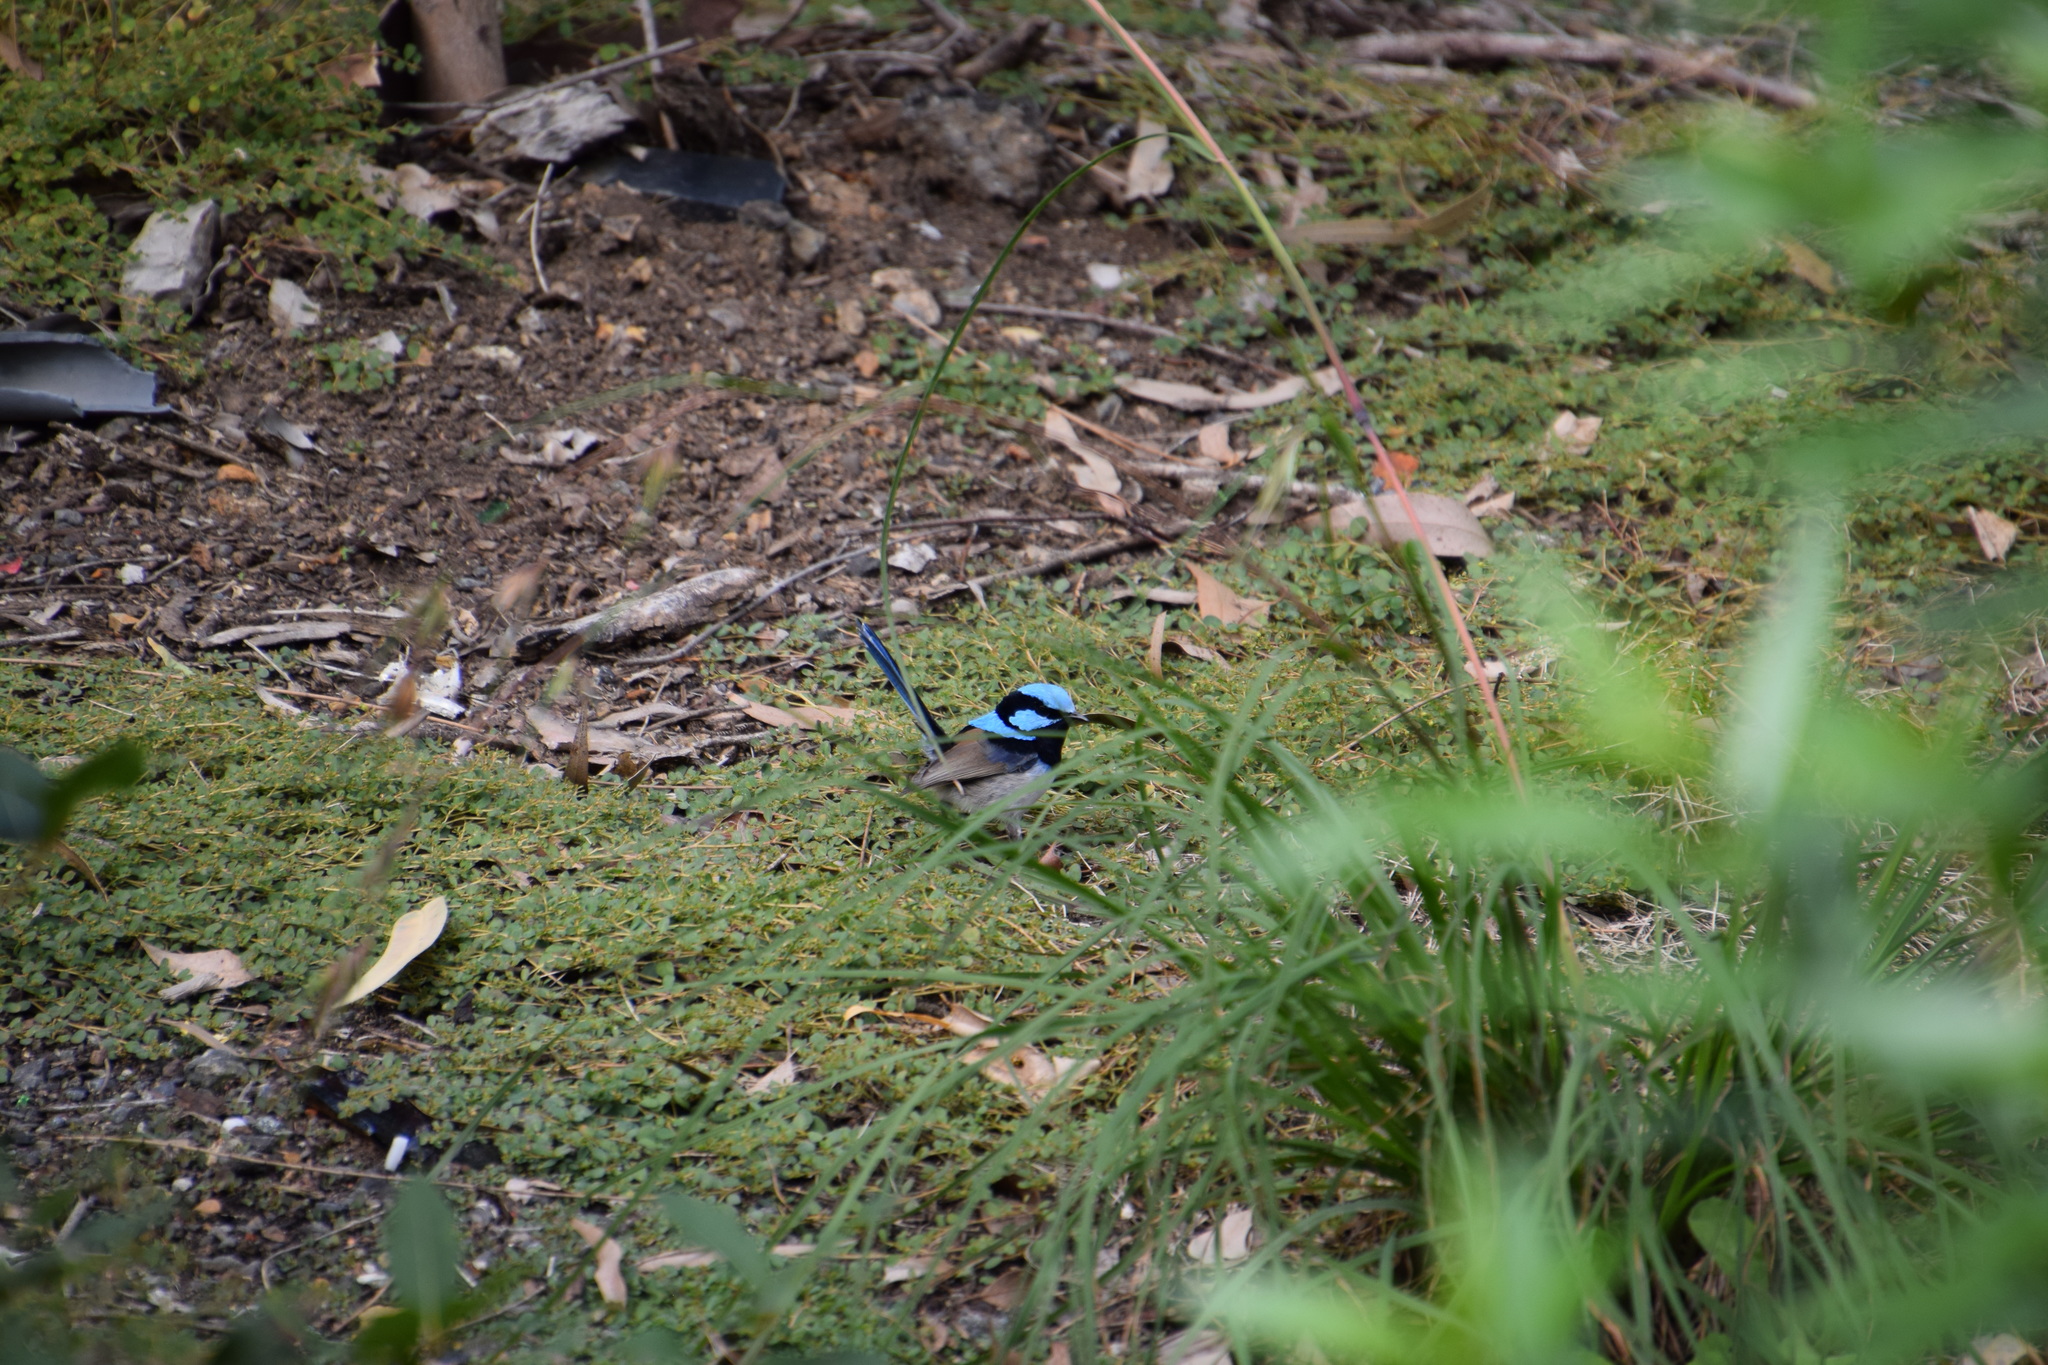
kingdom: Animalia
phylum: Chordata
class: Aves
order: Passeriformes
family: Maluridae
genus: Malurus
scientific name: Malurus cyaneus
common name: Superb fairywren
